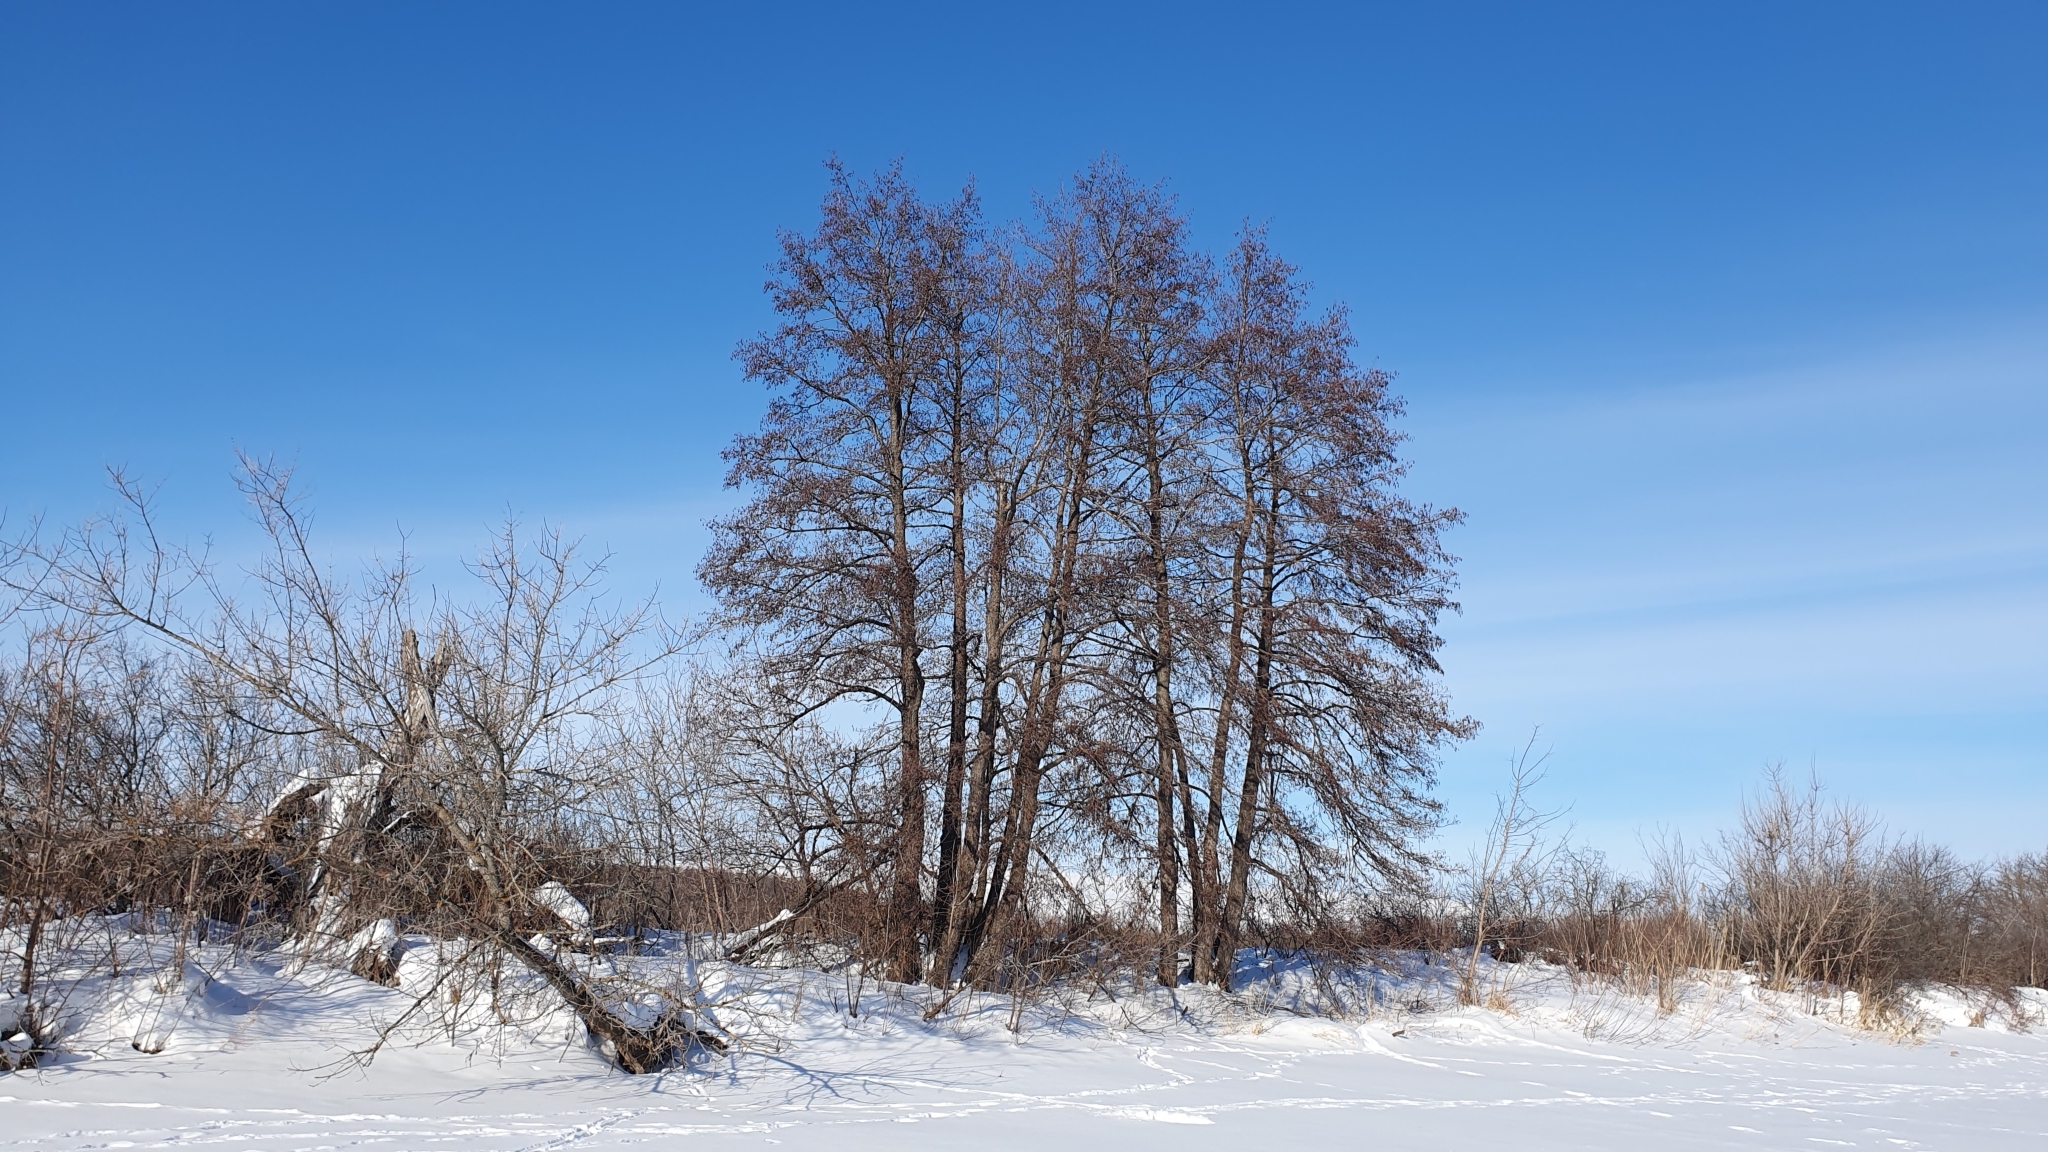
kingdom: Plantae
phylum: Tracheophyta
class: Magnoliopsida
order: Fagales
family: Betulaceae
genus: Alnus
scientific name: Alnus glutinosa
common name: Black alder
